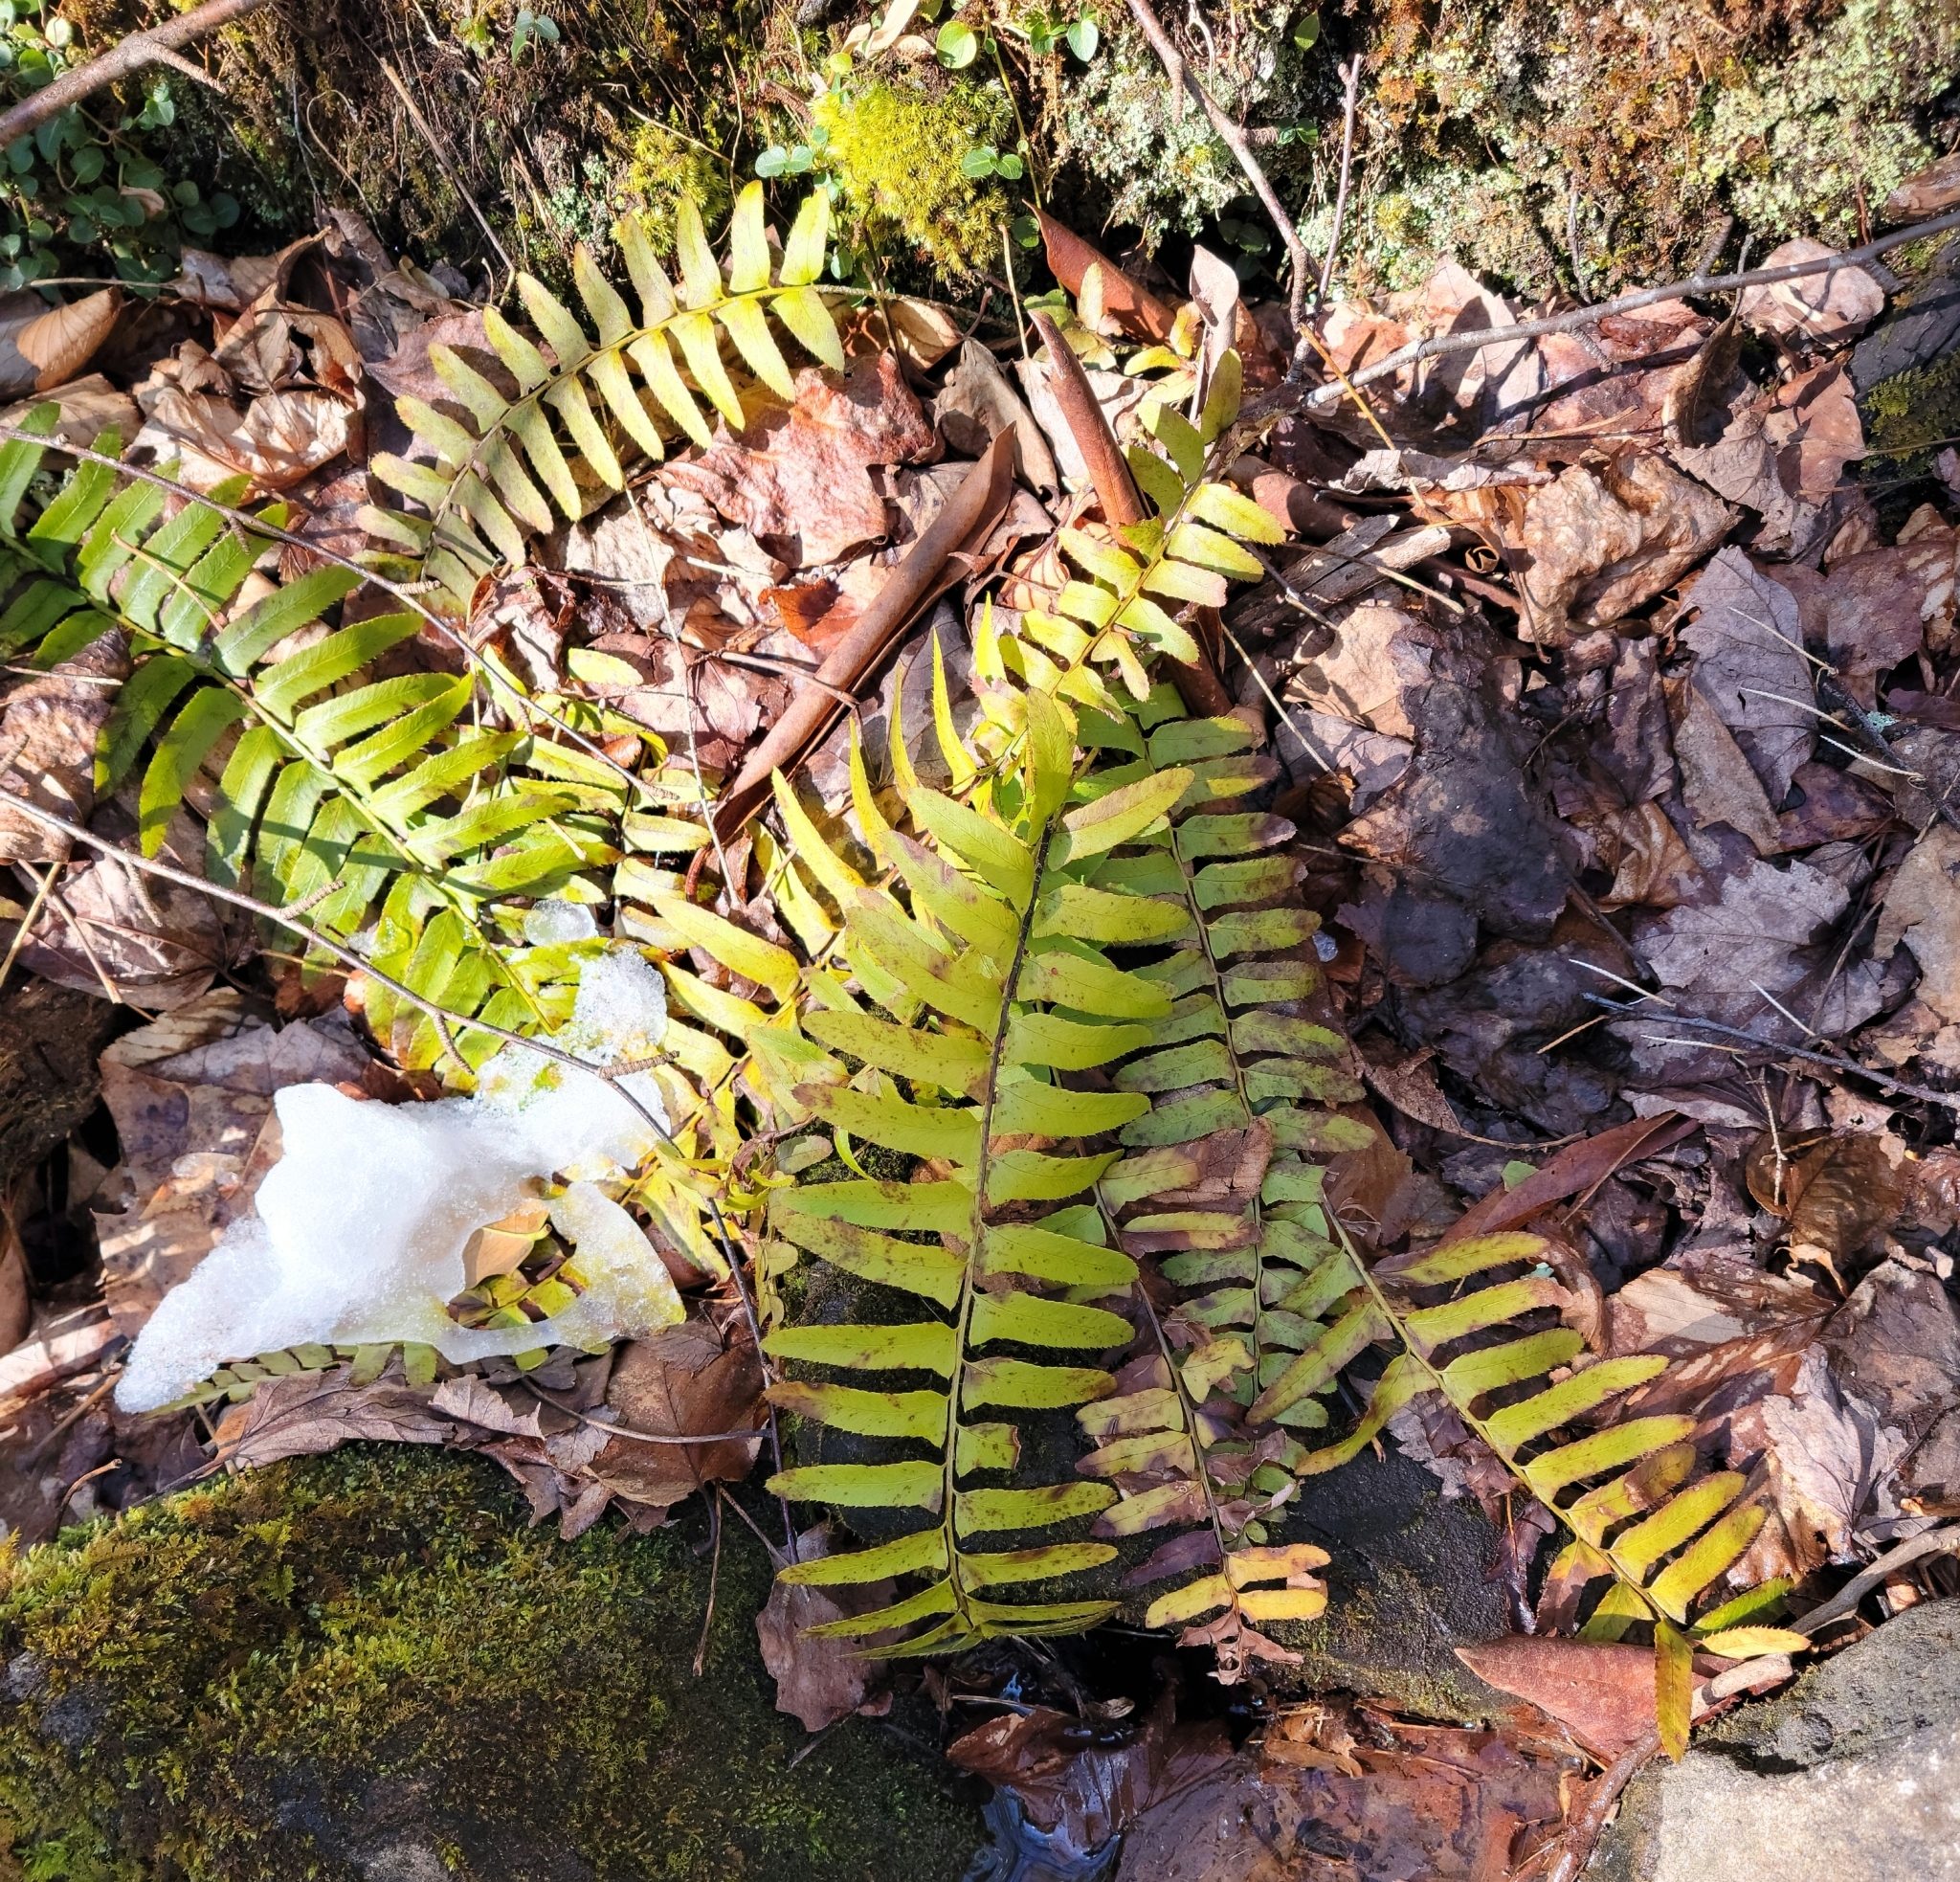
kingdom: Plantae
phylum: Tracheophyta
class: Polypodiopsida
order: Polypodiales
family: Dryopteridaceae
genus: Polystichum
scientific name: Polystichum acrostichoides
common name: Christmas fern
